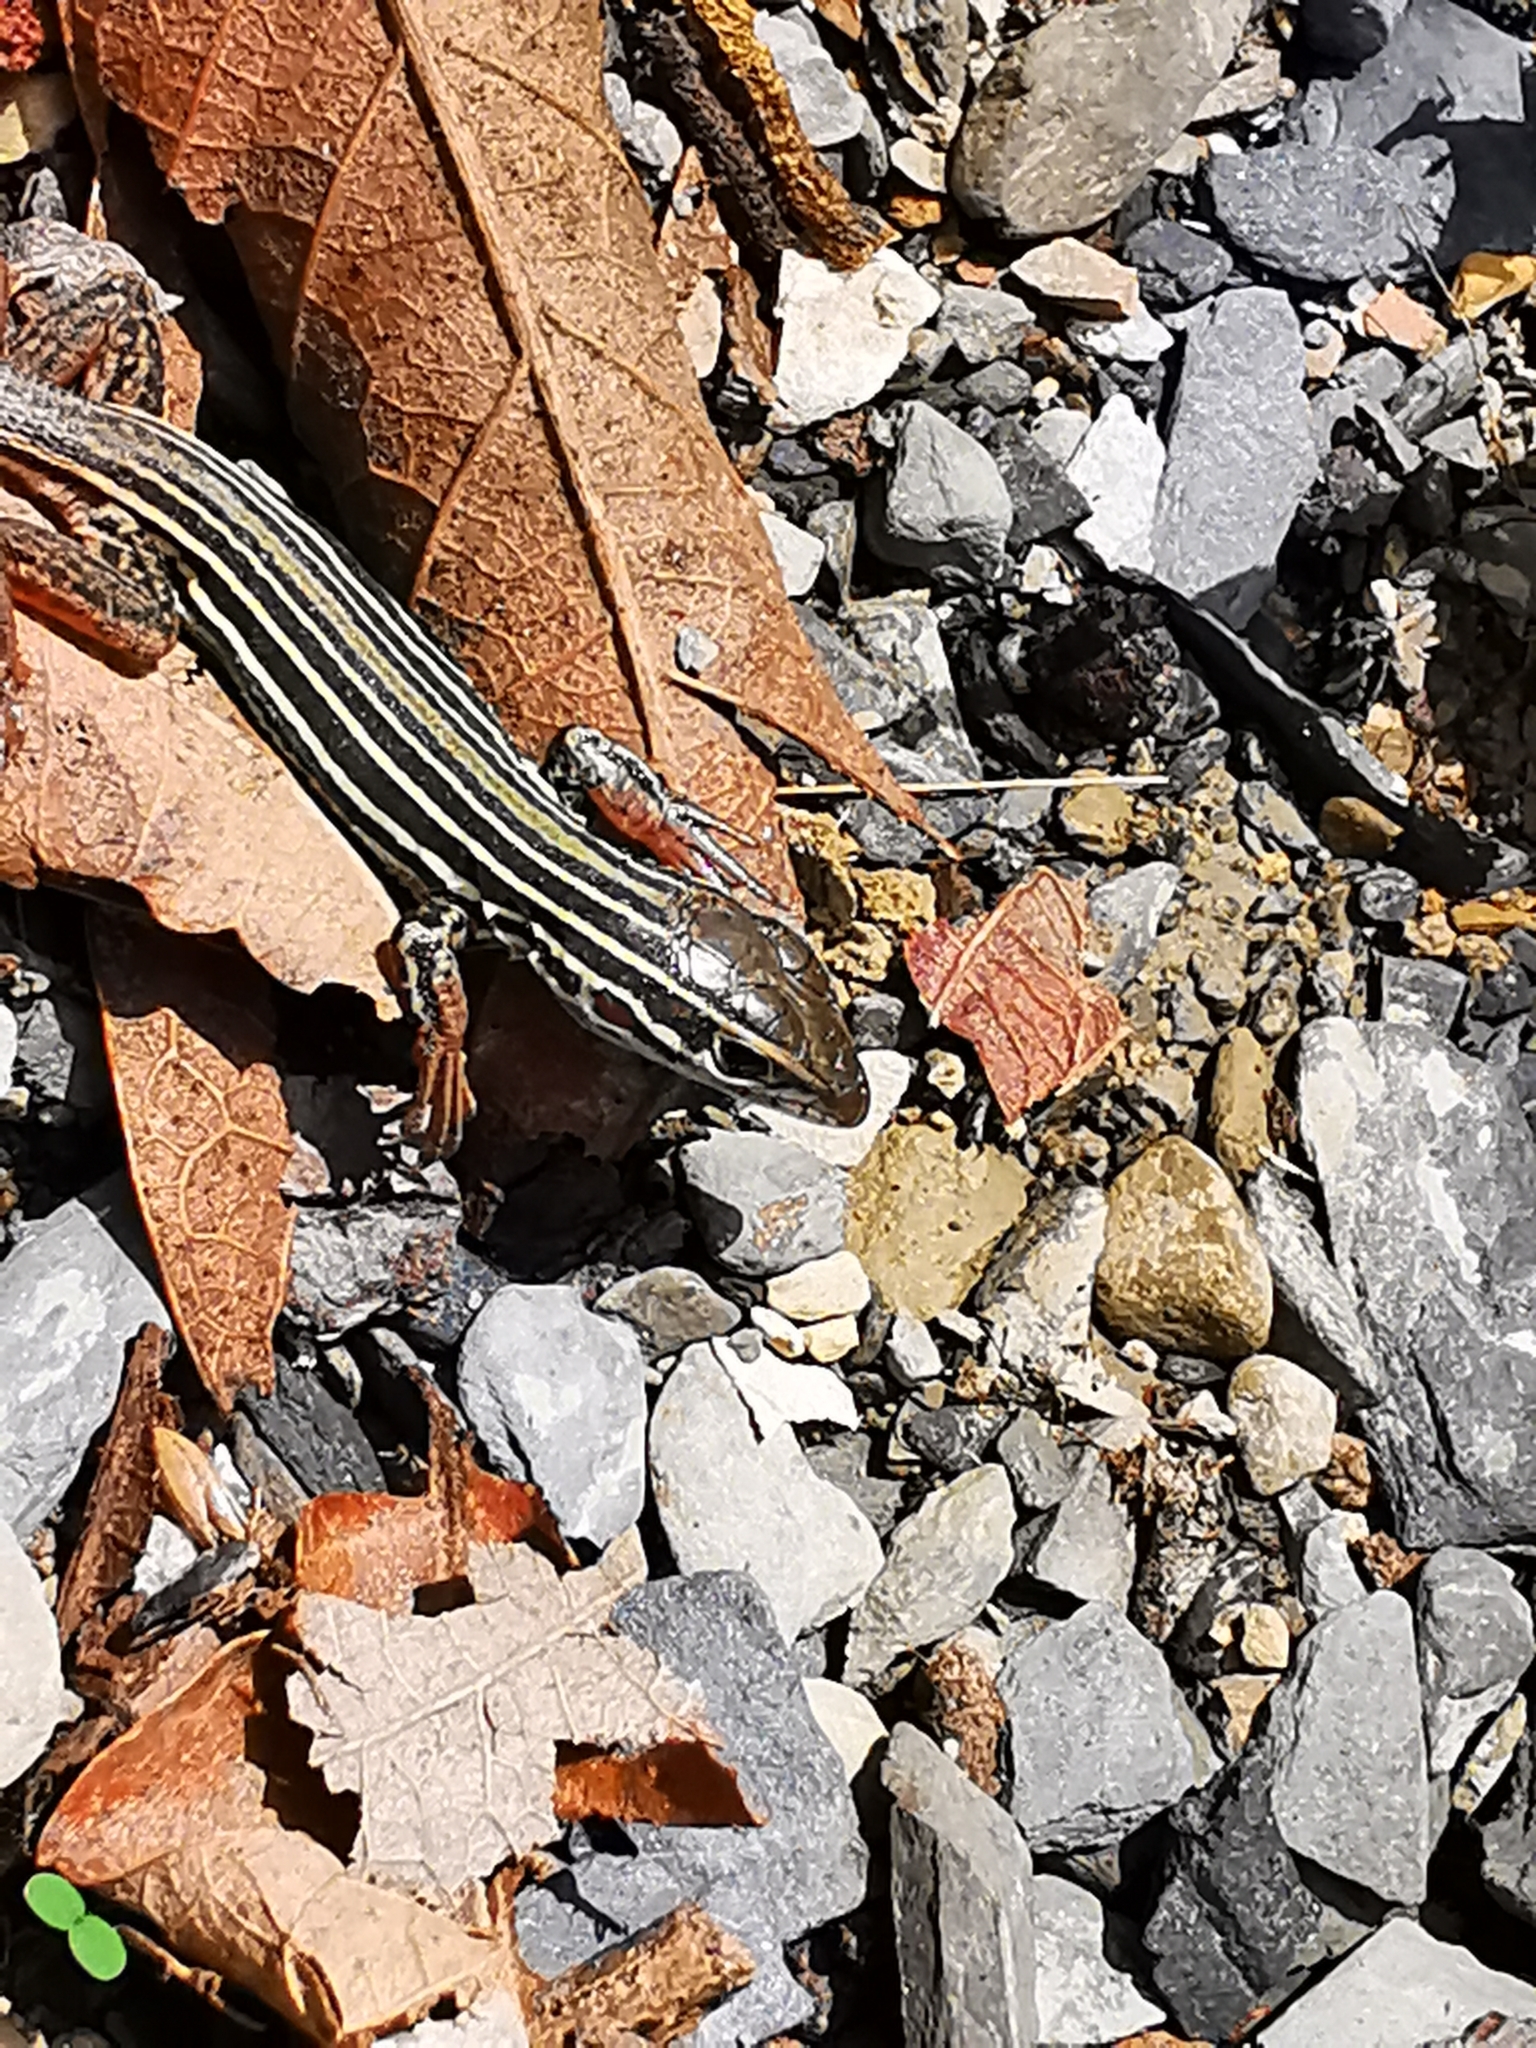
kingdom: Animalia
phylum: Chordata
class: Squamata
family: Teiidae
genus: Aspidoscelis
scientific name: Aspidoscelis gularis
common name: Eastern spotted whiptail
